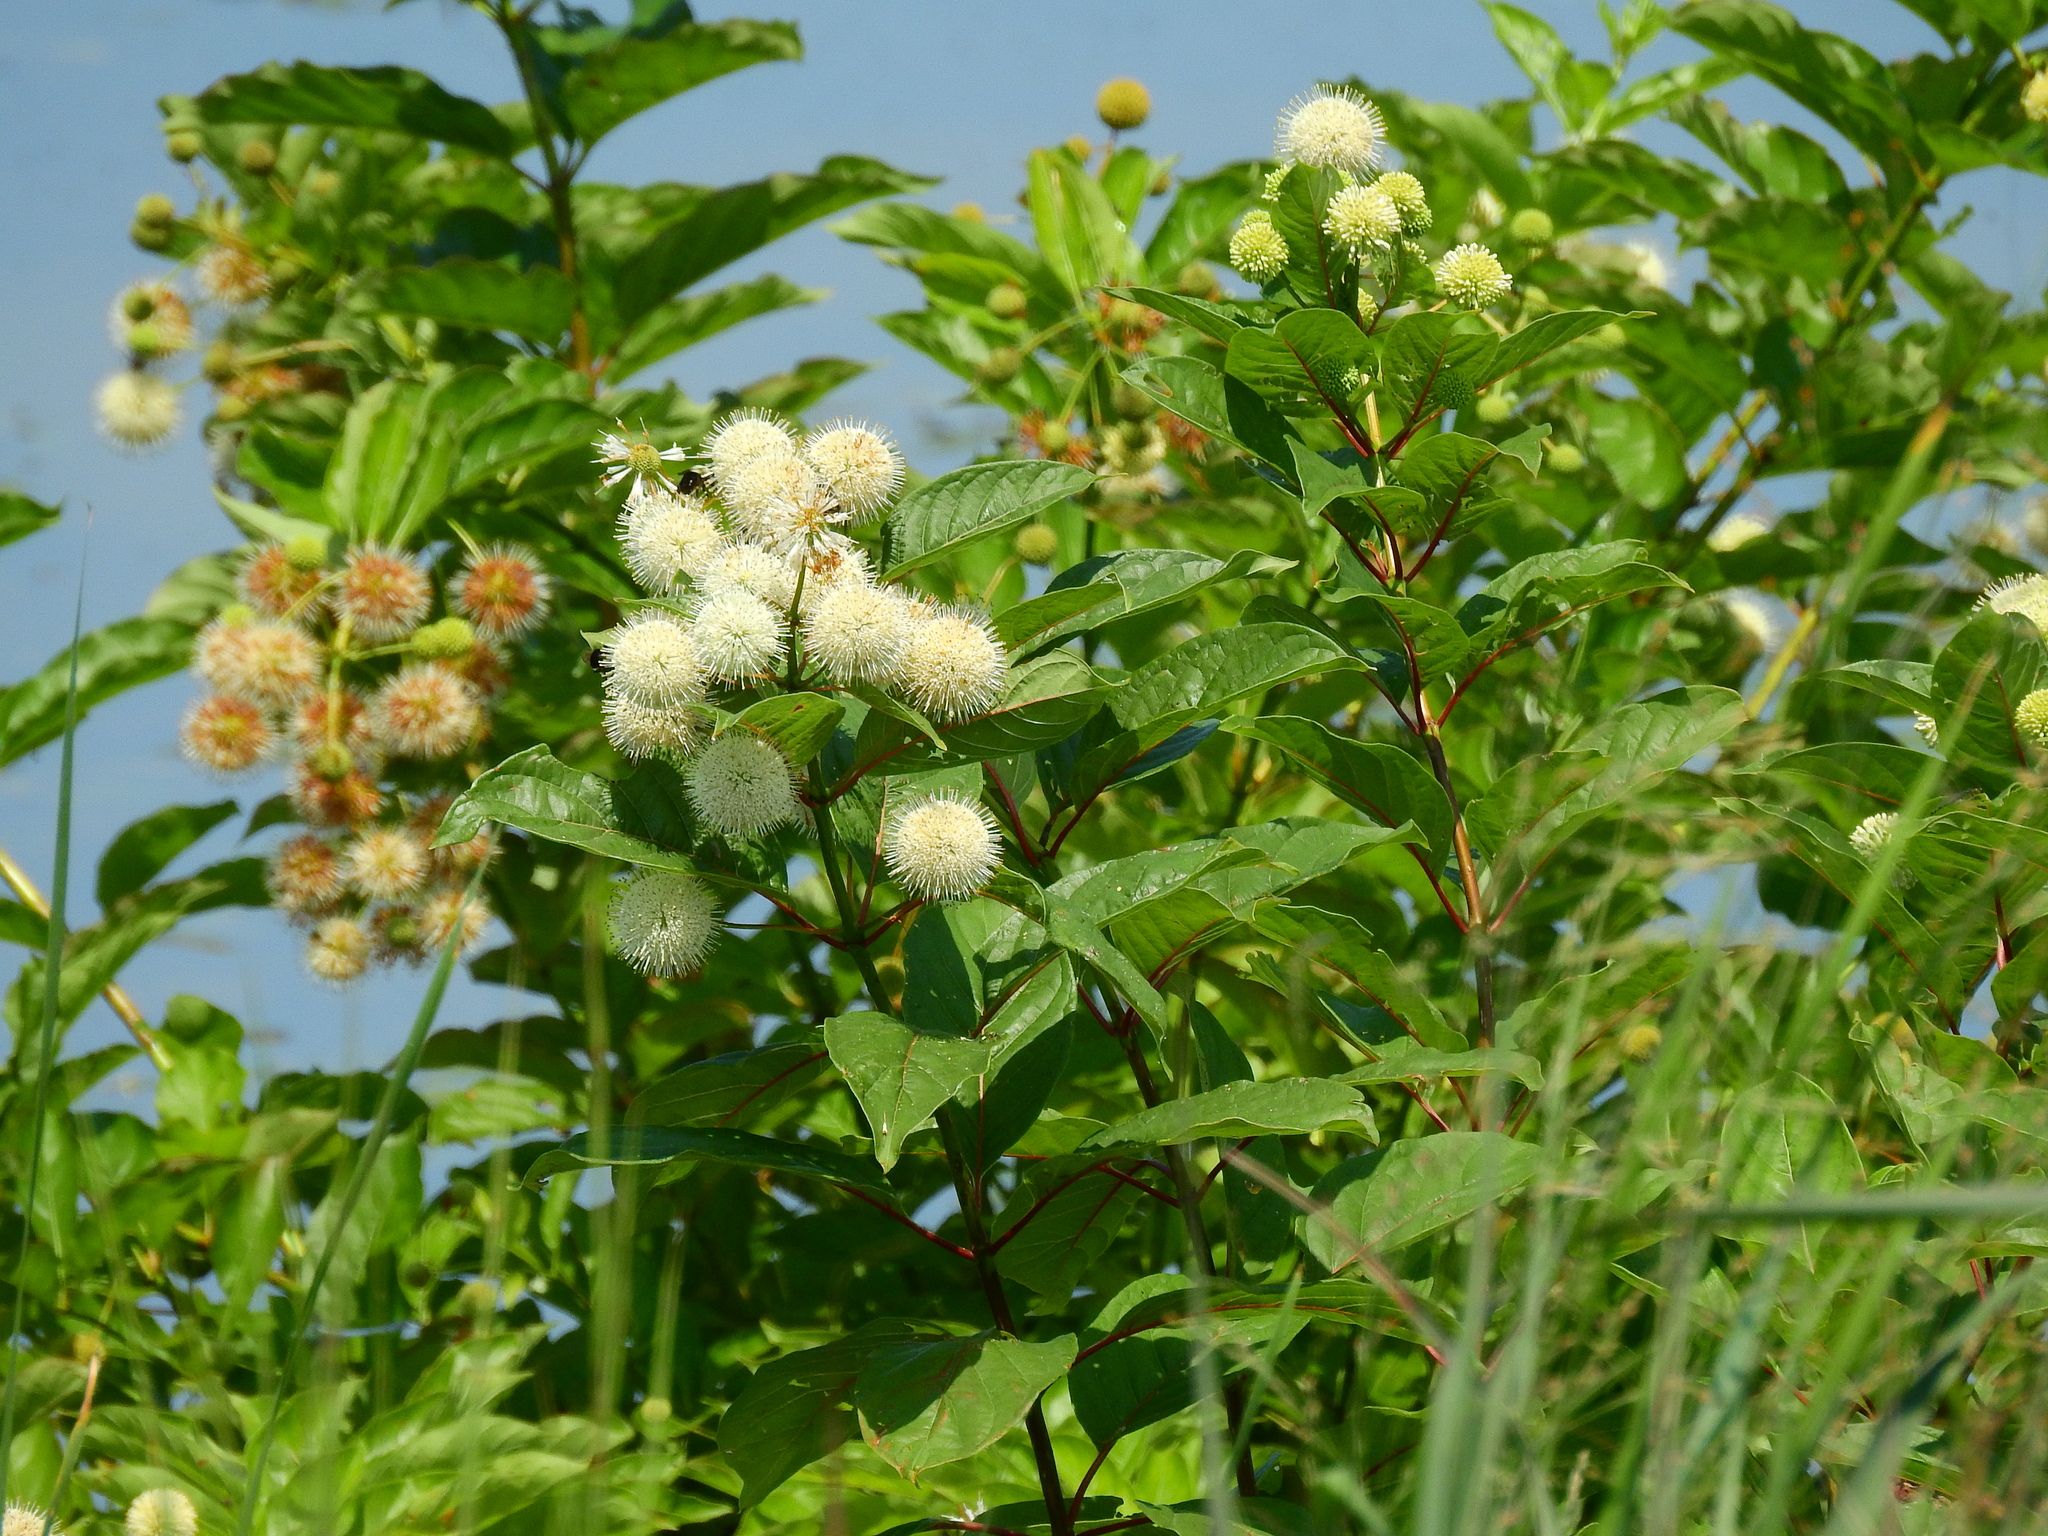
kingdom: Plantae
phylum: Tracheophyta
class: Magnoliopsida
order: Gentianales
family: Rubiaceae
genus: Cephalanthus
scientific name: Cephalanthus occidentalis
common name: Button-willow
